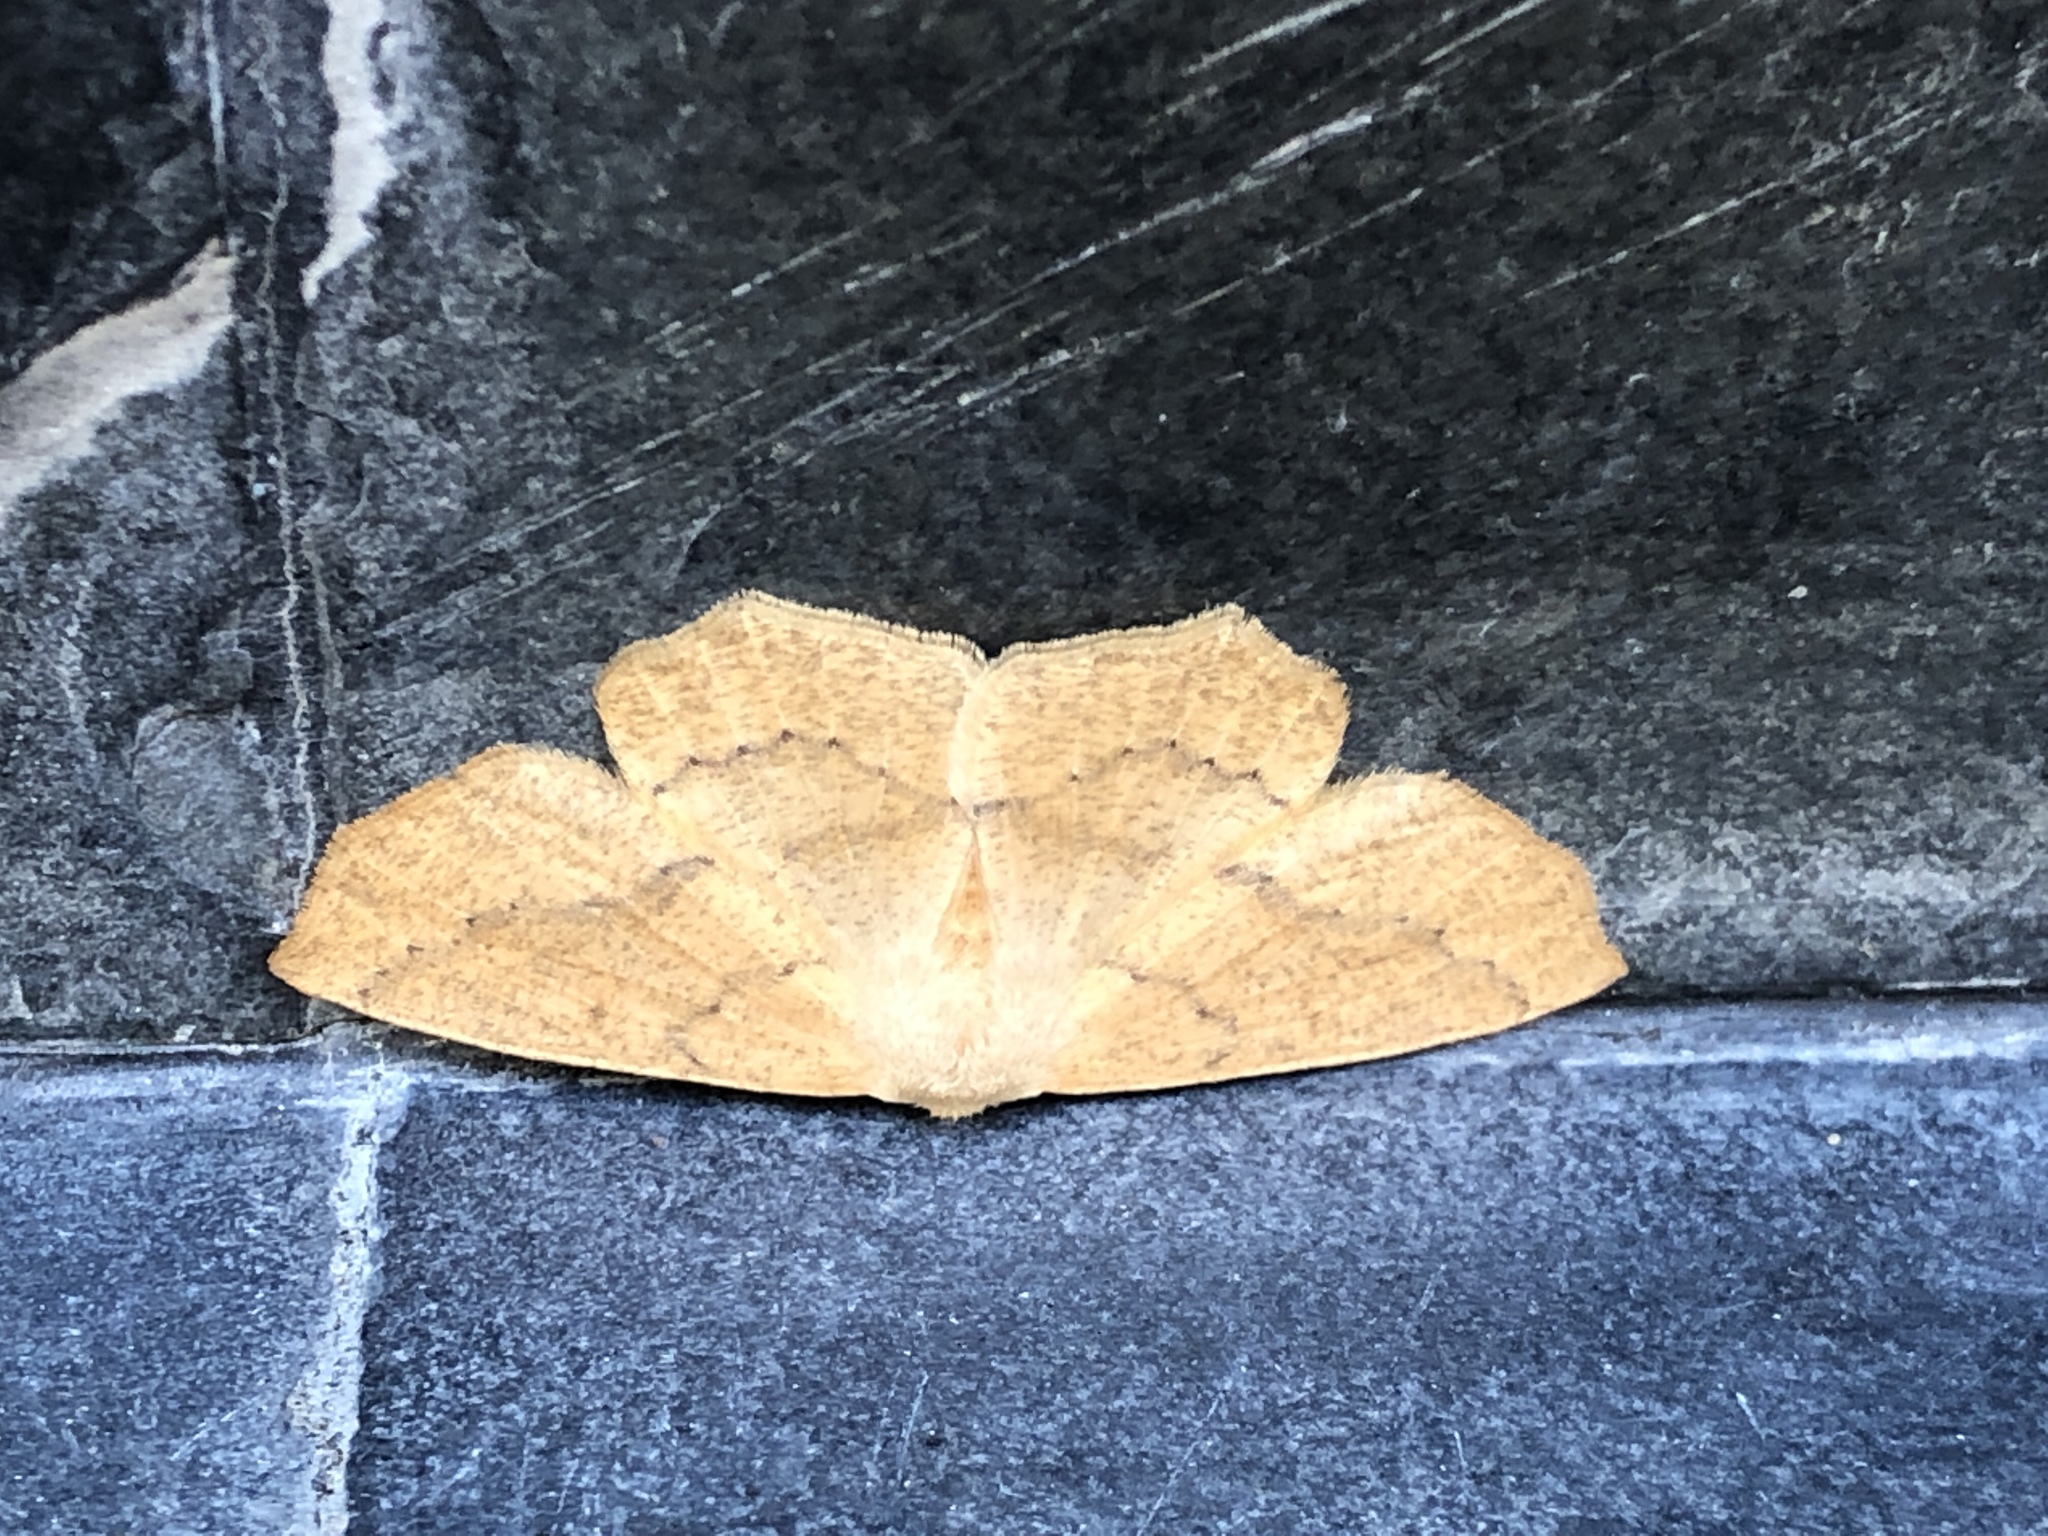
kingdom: Animalia
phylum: Arthropoda
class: Insecta
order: Lepidoptera
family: Geometridae
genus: Sabulodes
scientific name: Sabulodes aegrotata
